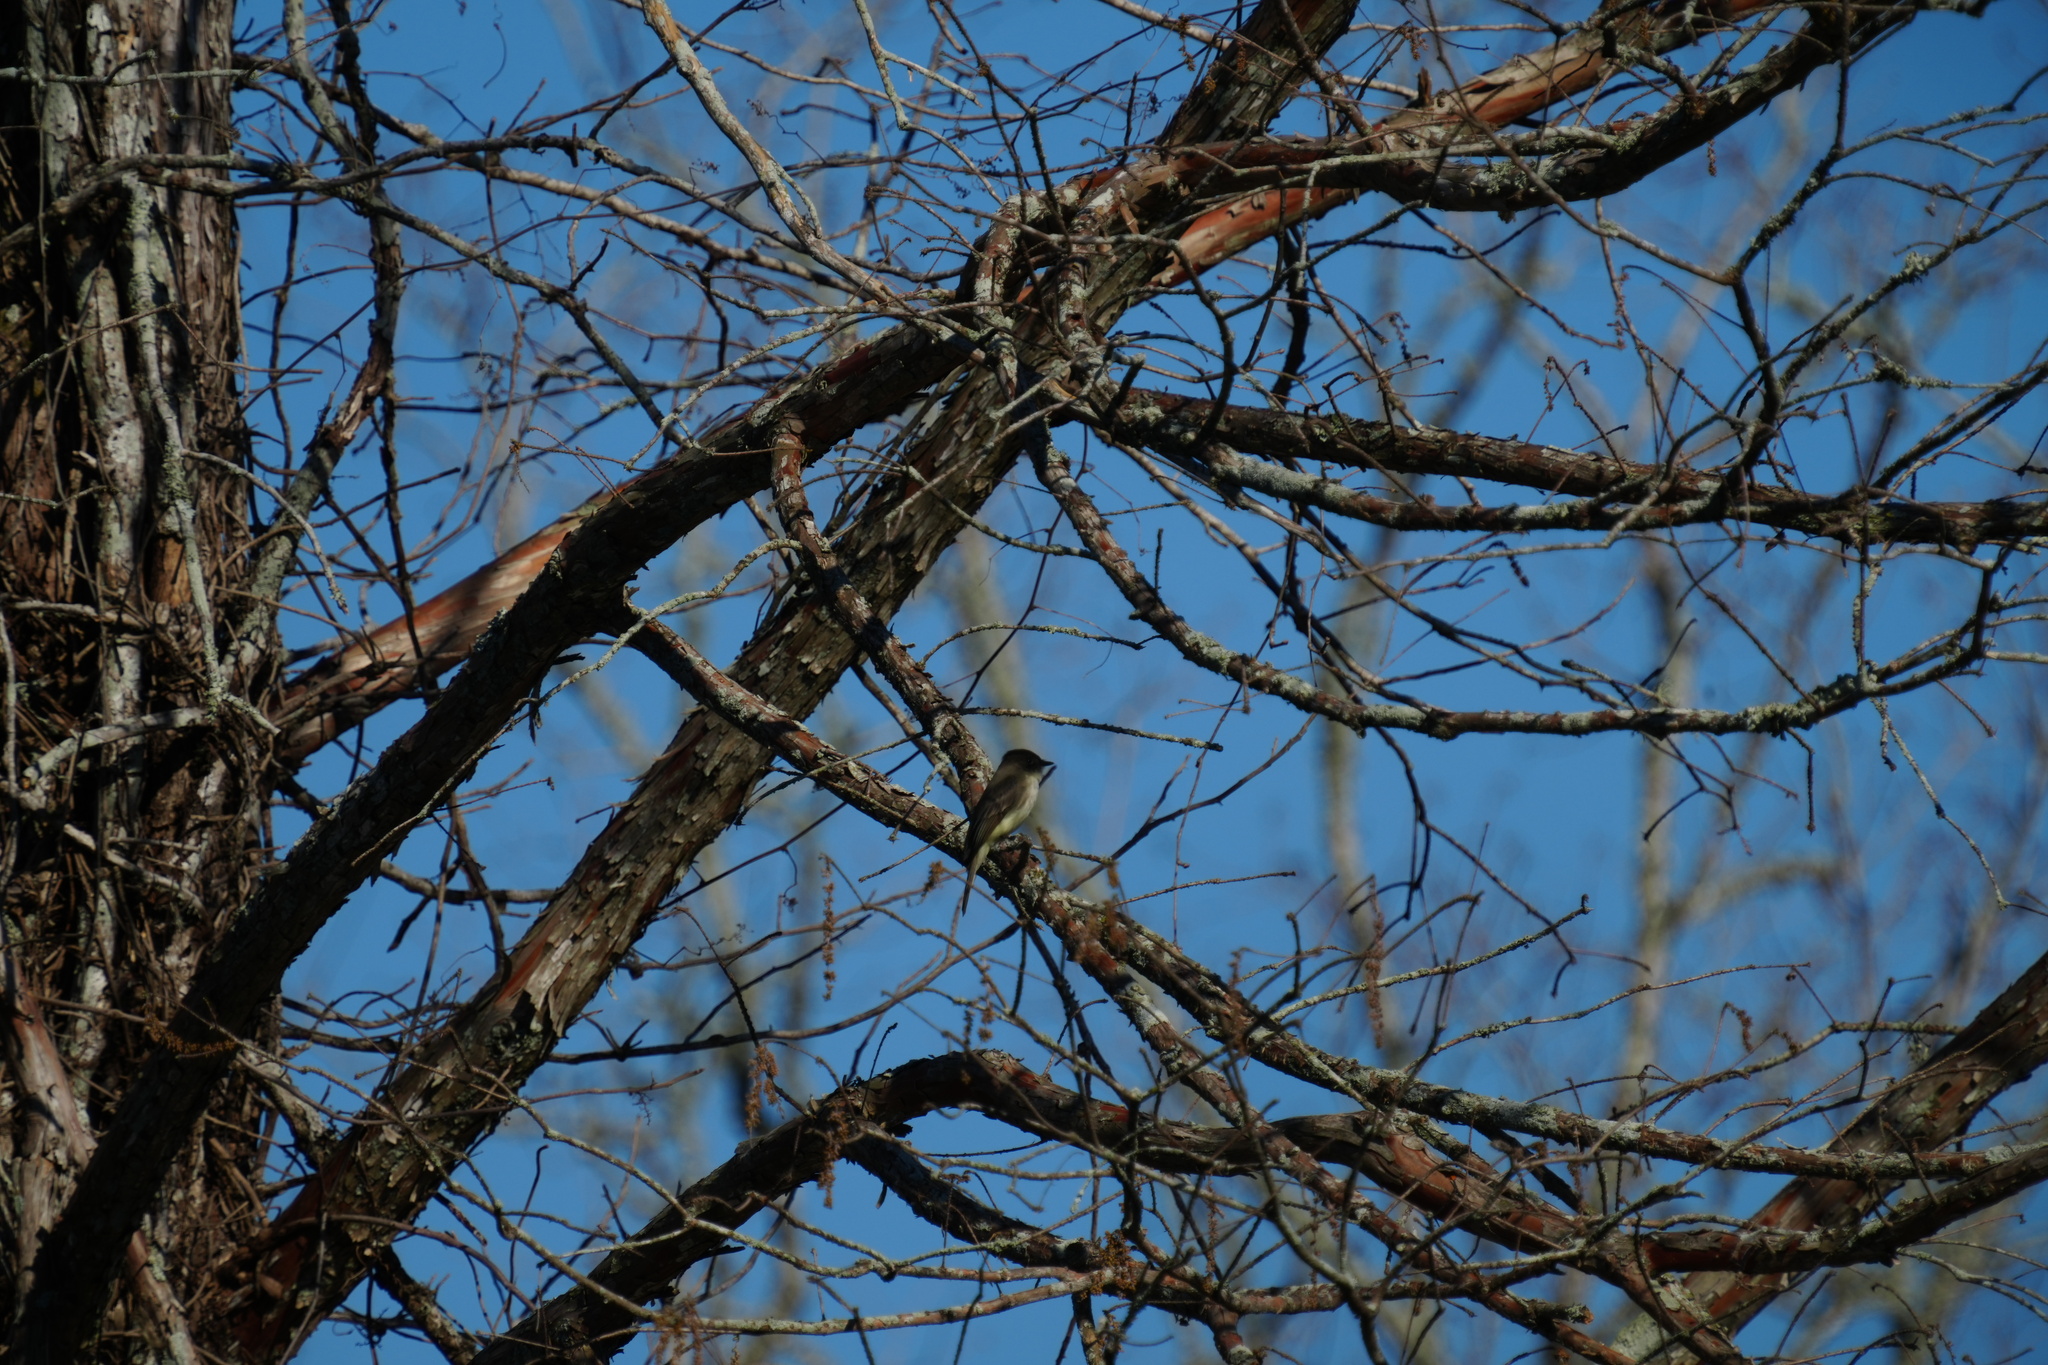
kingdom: Animalia
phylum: Chordata
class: Aves
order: Passeriformes
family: Tyrannidae
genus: Sayornis
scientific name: Sayornis phoebe
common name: Eastern phoebe
